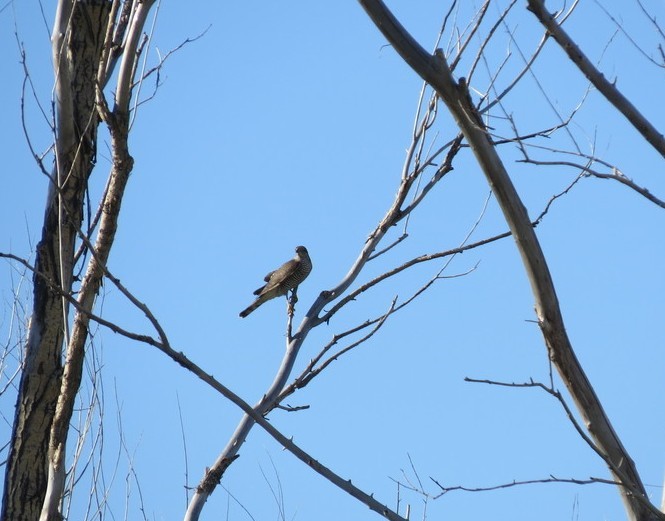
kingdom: Animalia
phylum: Chordata
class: Aves
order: Accipitriformes
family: Accipitridae
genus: Accipiter
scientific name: Accipiter nisus
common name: Eurasian sparrowhawk
